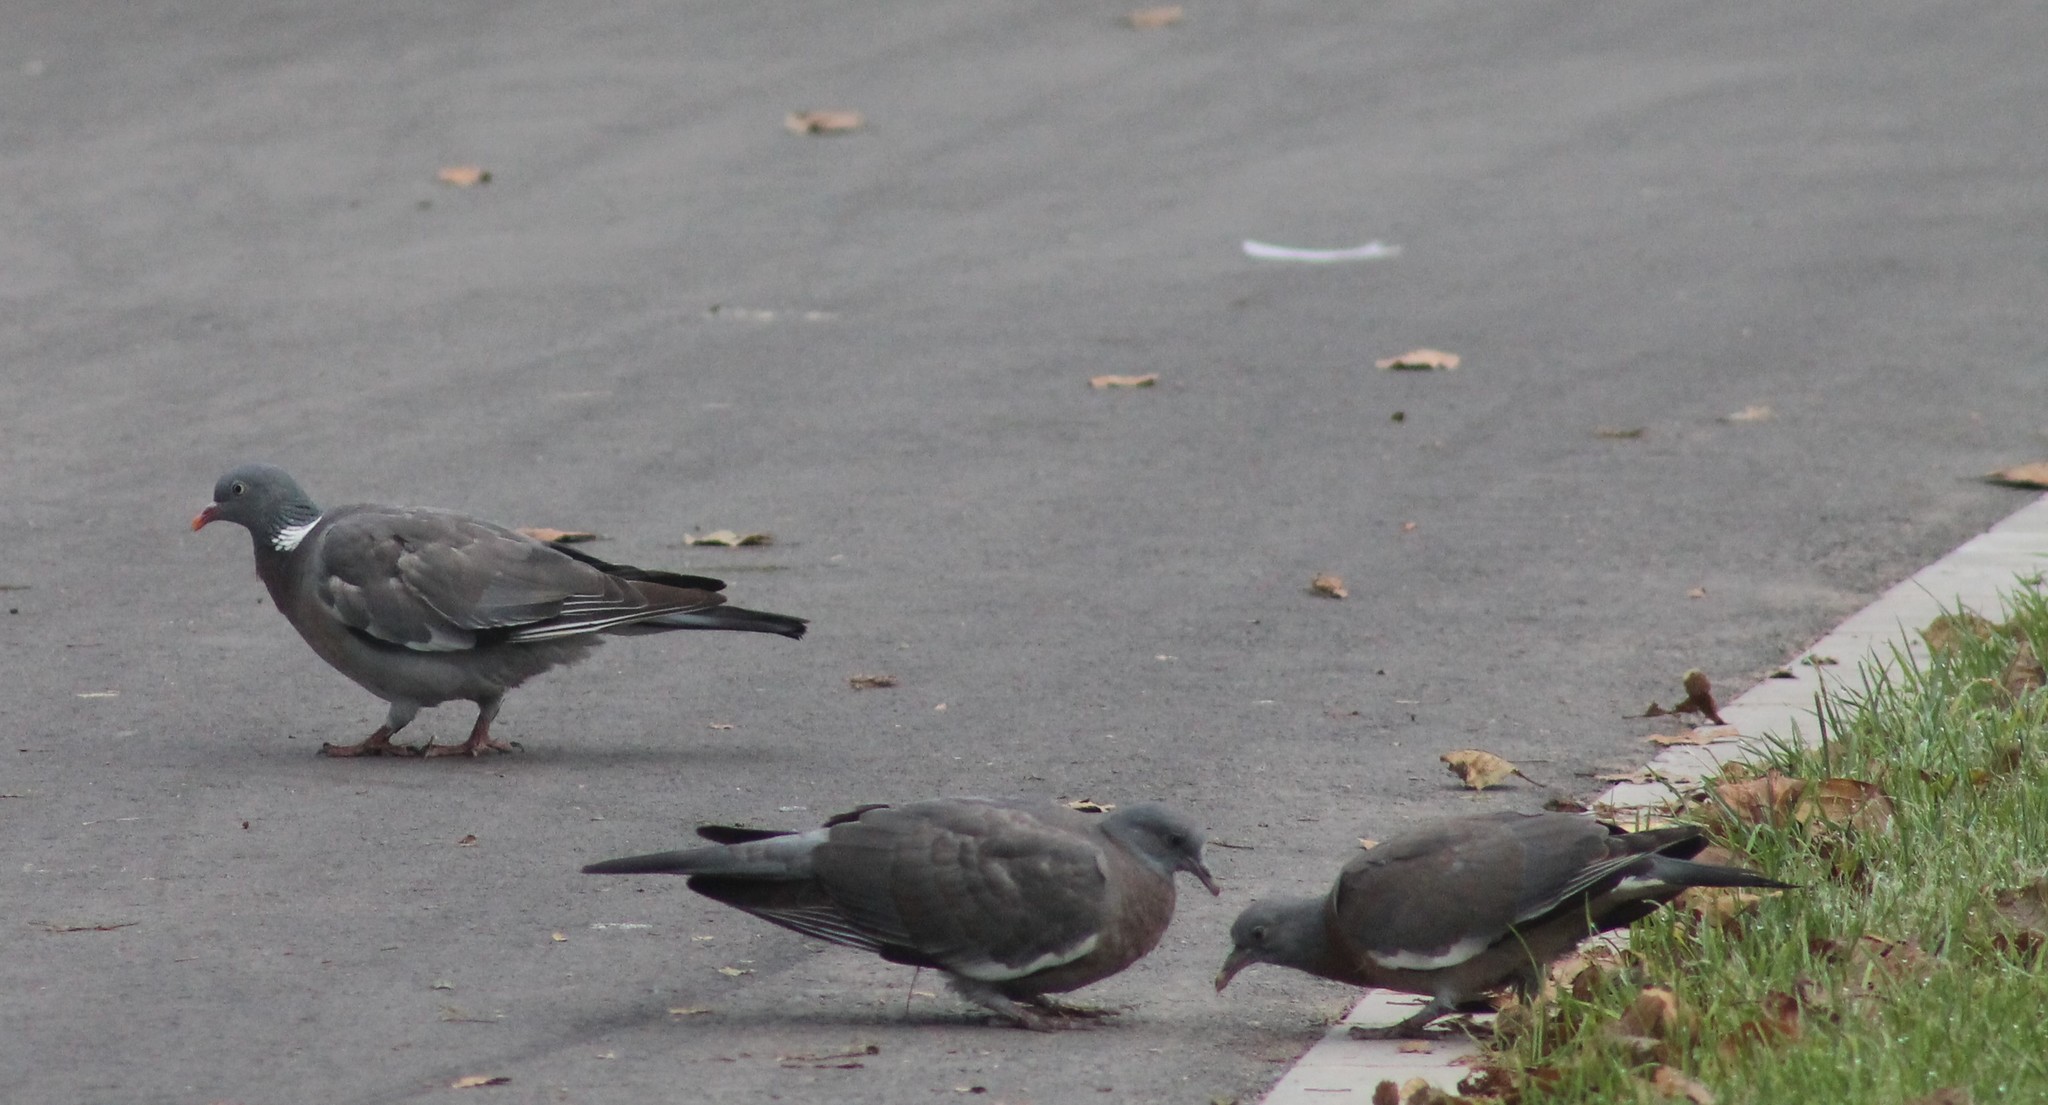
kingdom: Animalia
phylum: Chordata
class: Aves
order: Columbiformes
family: Columbidae
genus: Columba
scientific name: Columba palumbus
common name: Common wood pigeon
